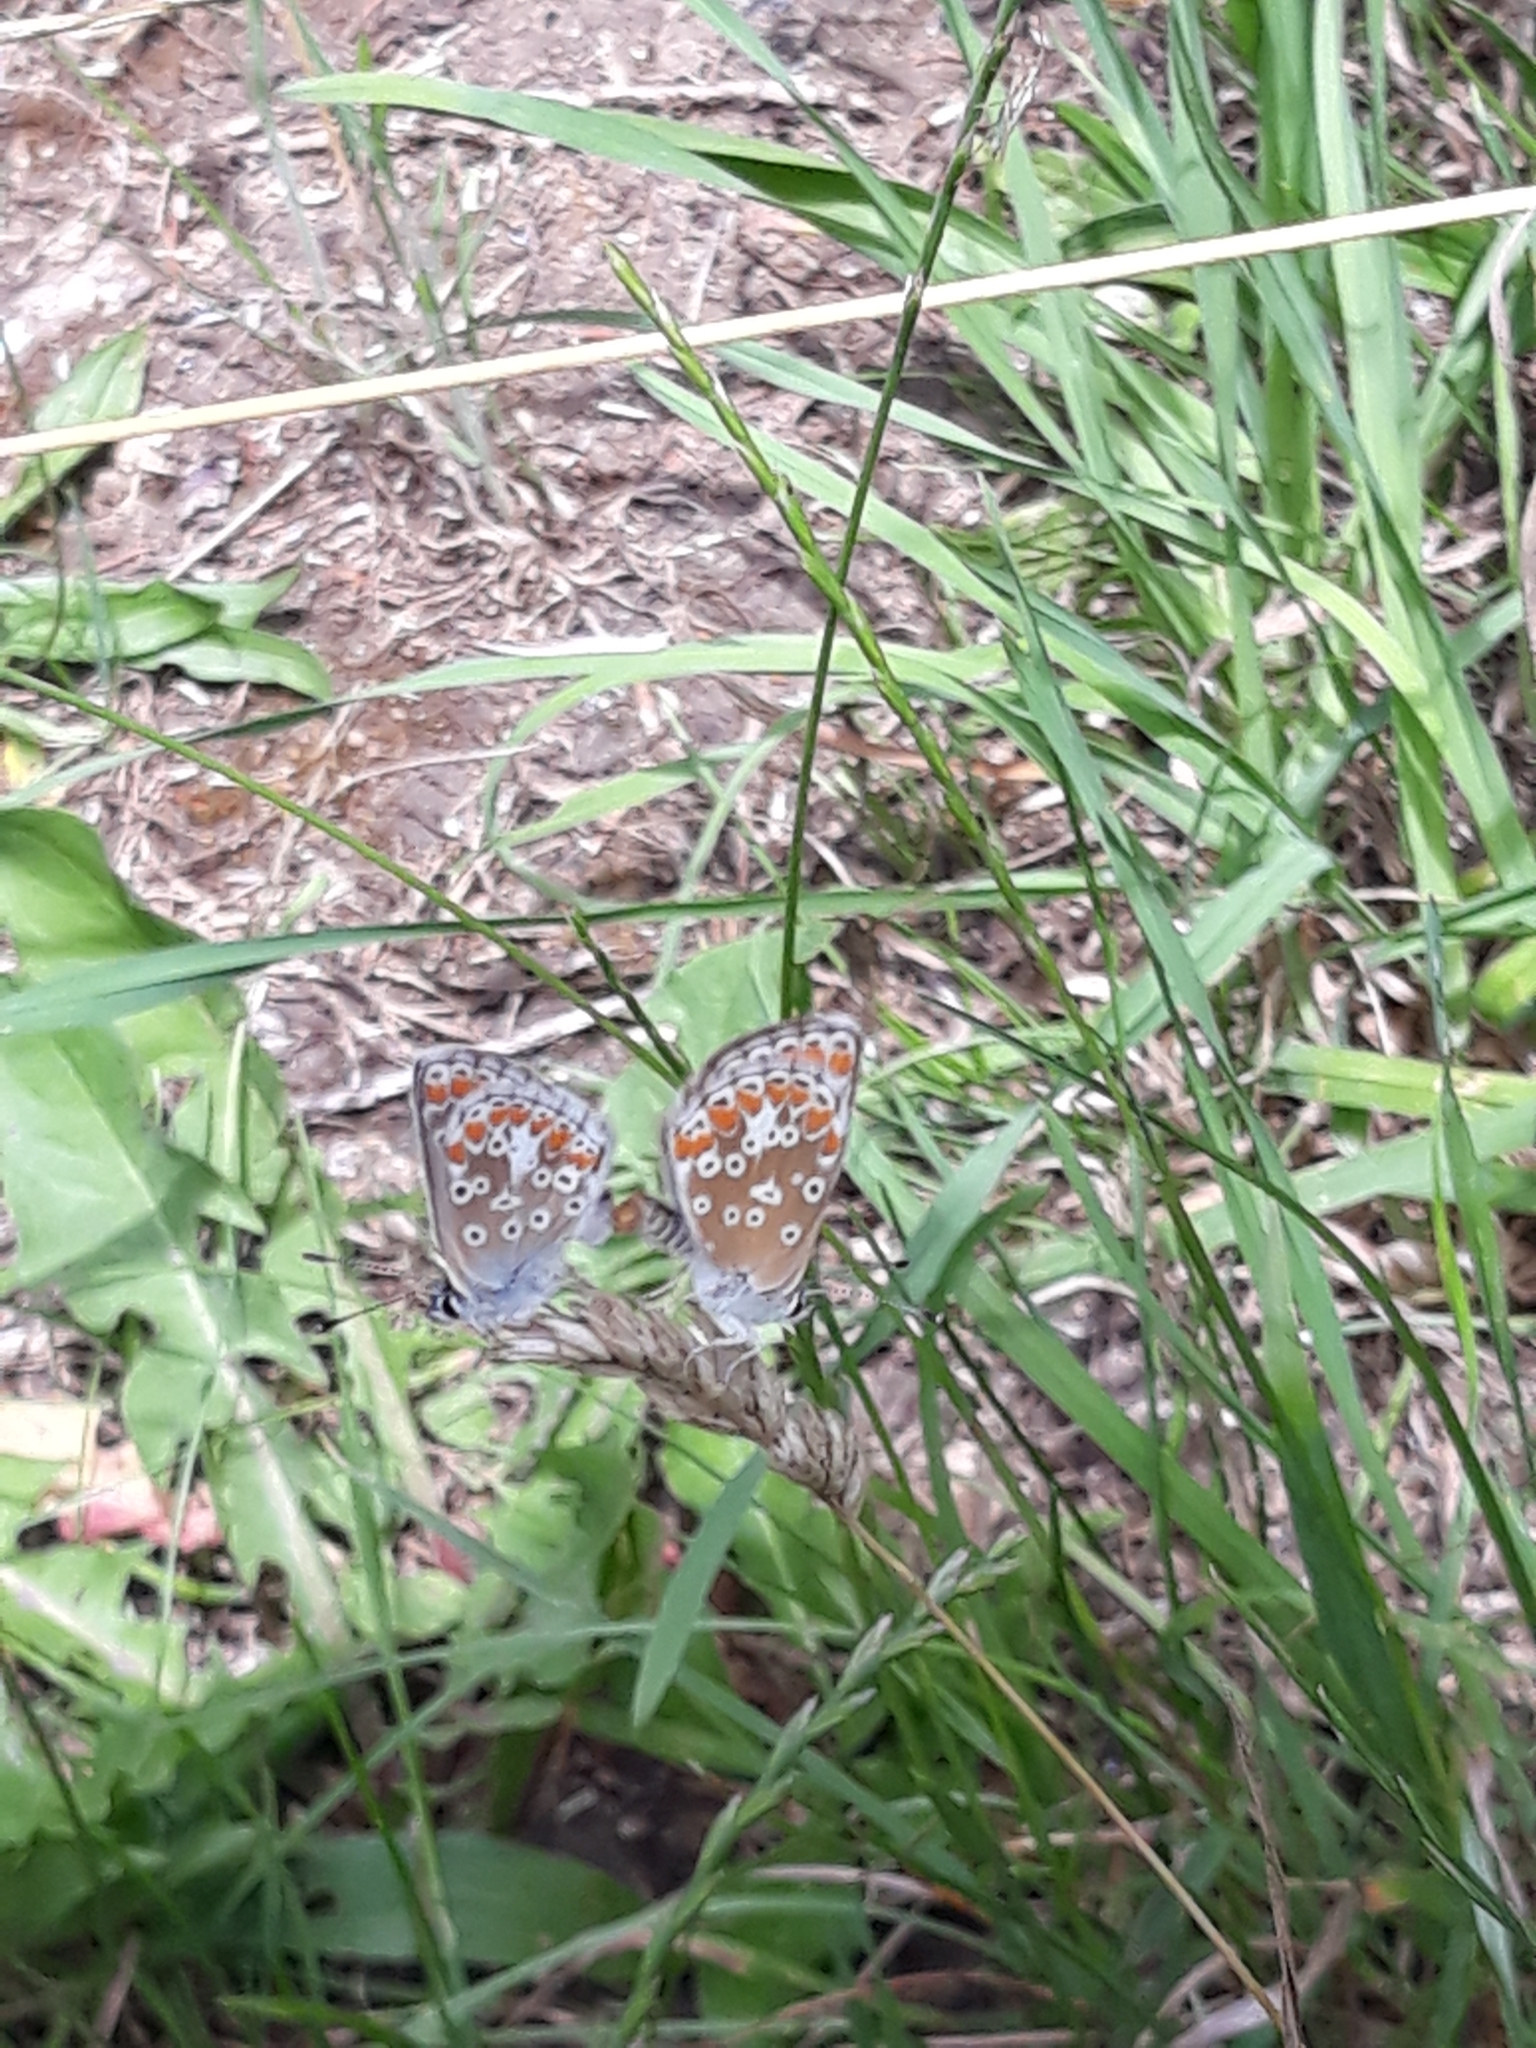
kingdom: Animalia
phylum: Arthropoda
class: Insecta
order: Lepidoptera
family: Lycaenidae
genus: Aricia
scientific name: Aricia agestis
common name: Brown argus
